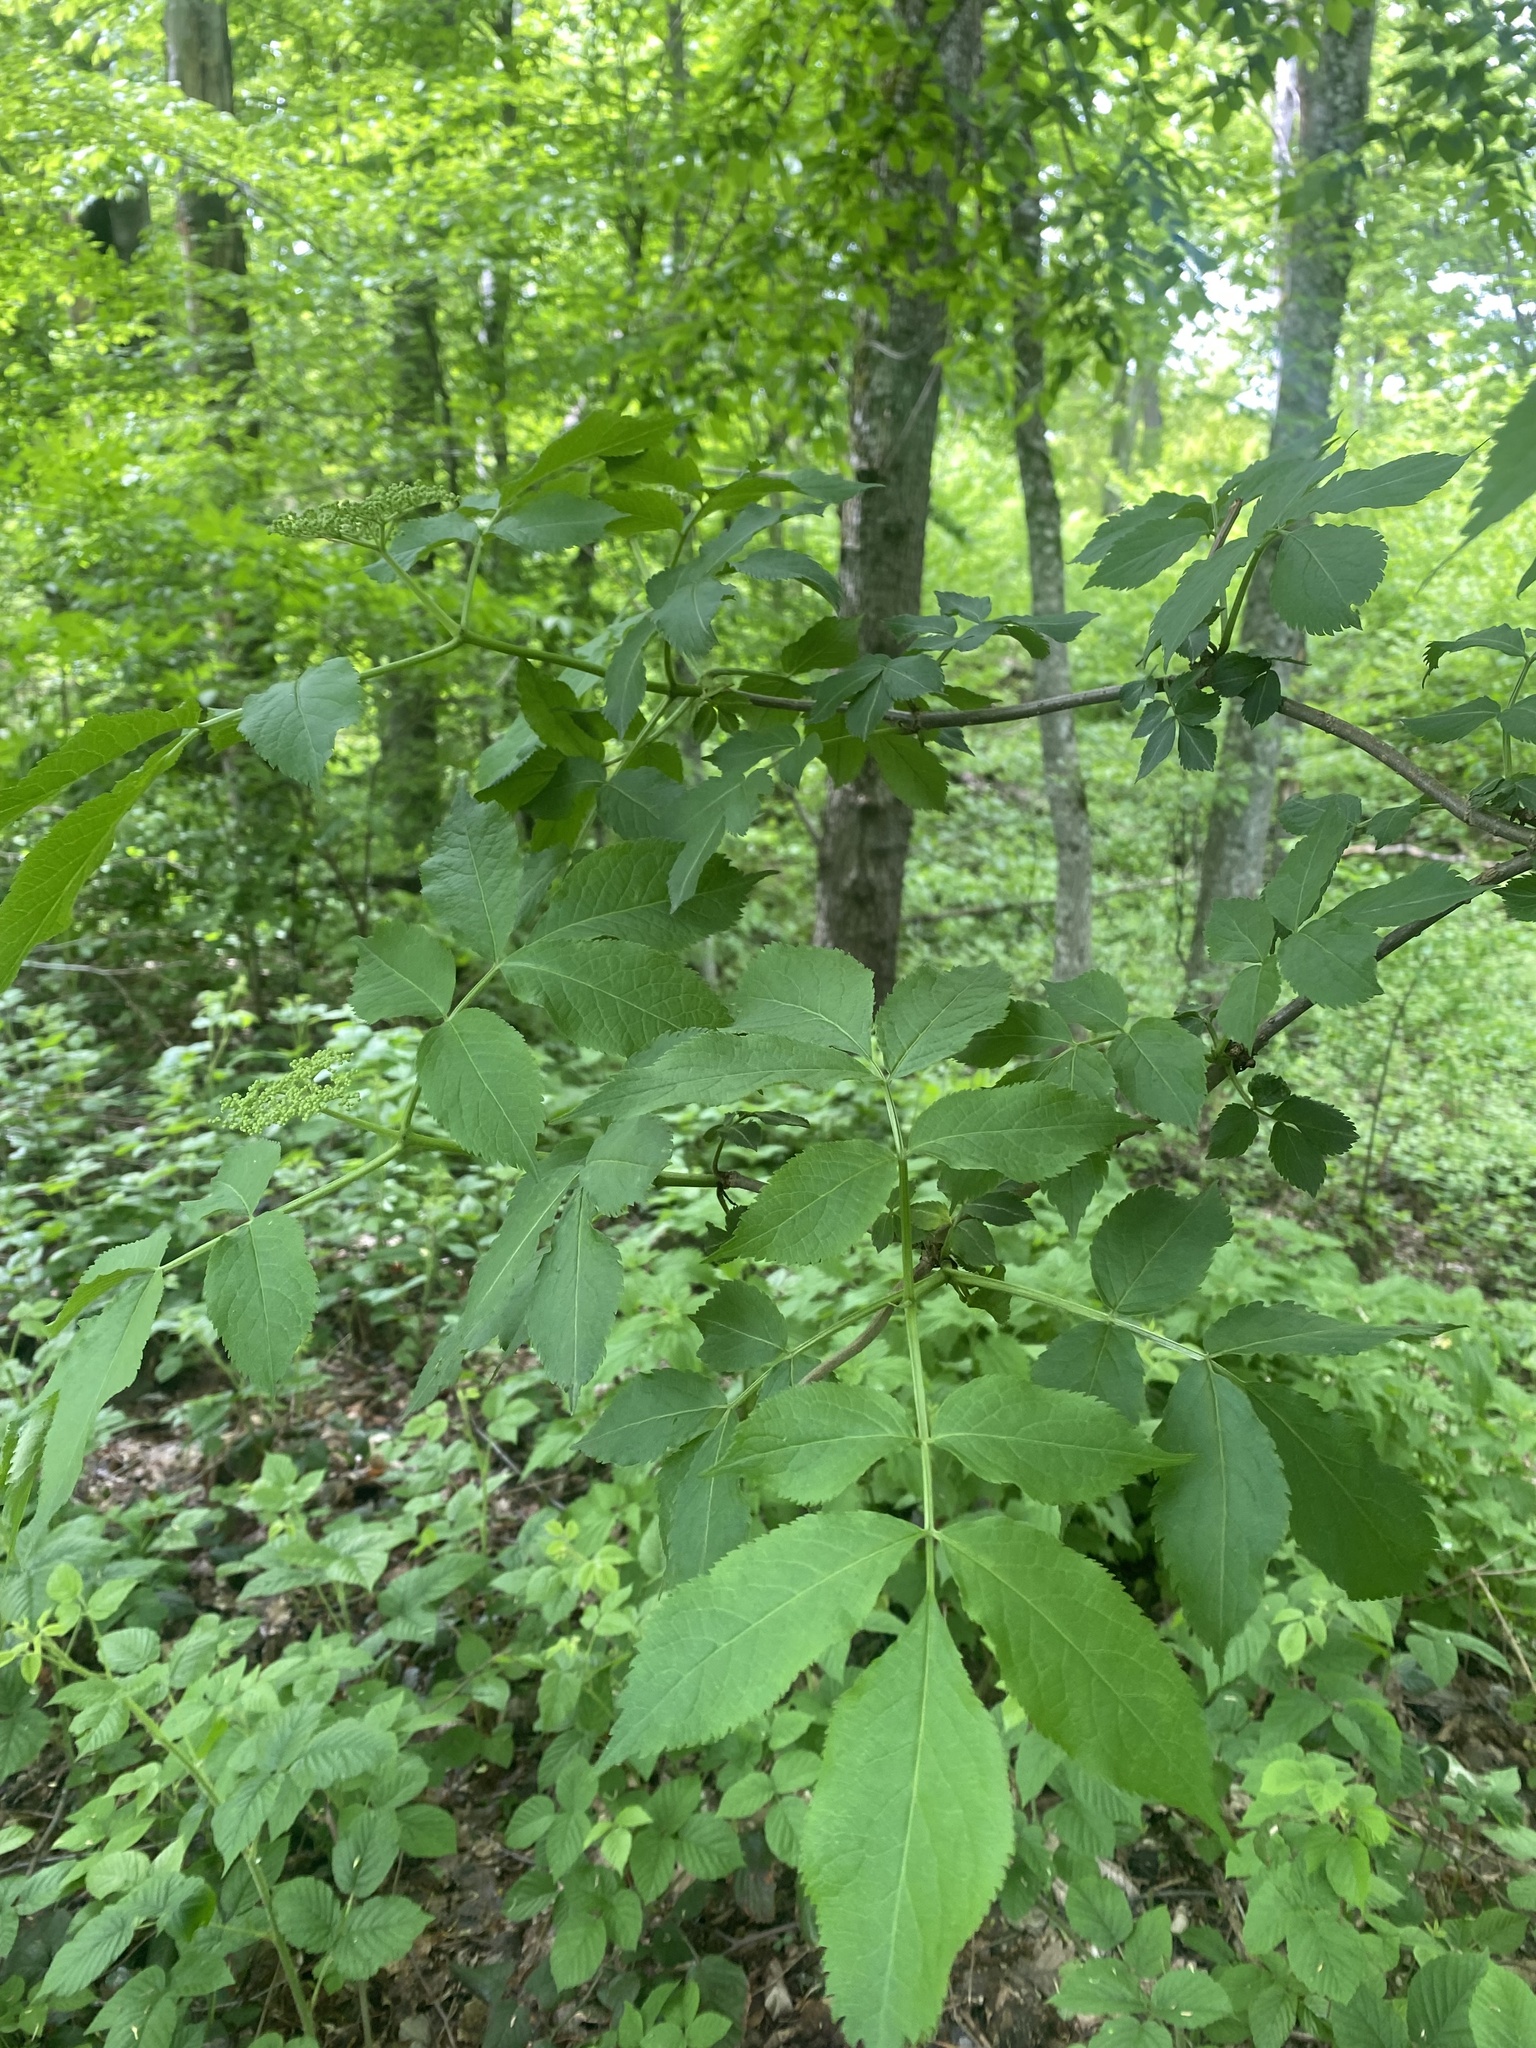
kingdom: Plantae
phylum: Tracheophyta
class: Magnoliopsida
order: Dipsacales
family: Viburnaceae
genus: Sambucus
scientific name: Sambucus nigra
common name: Elder
